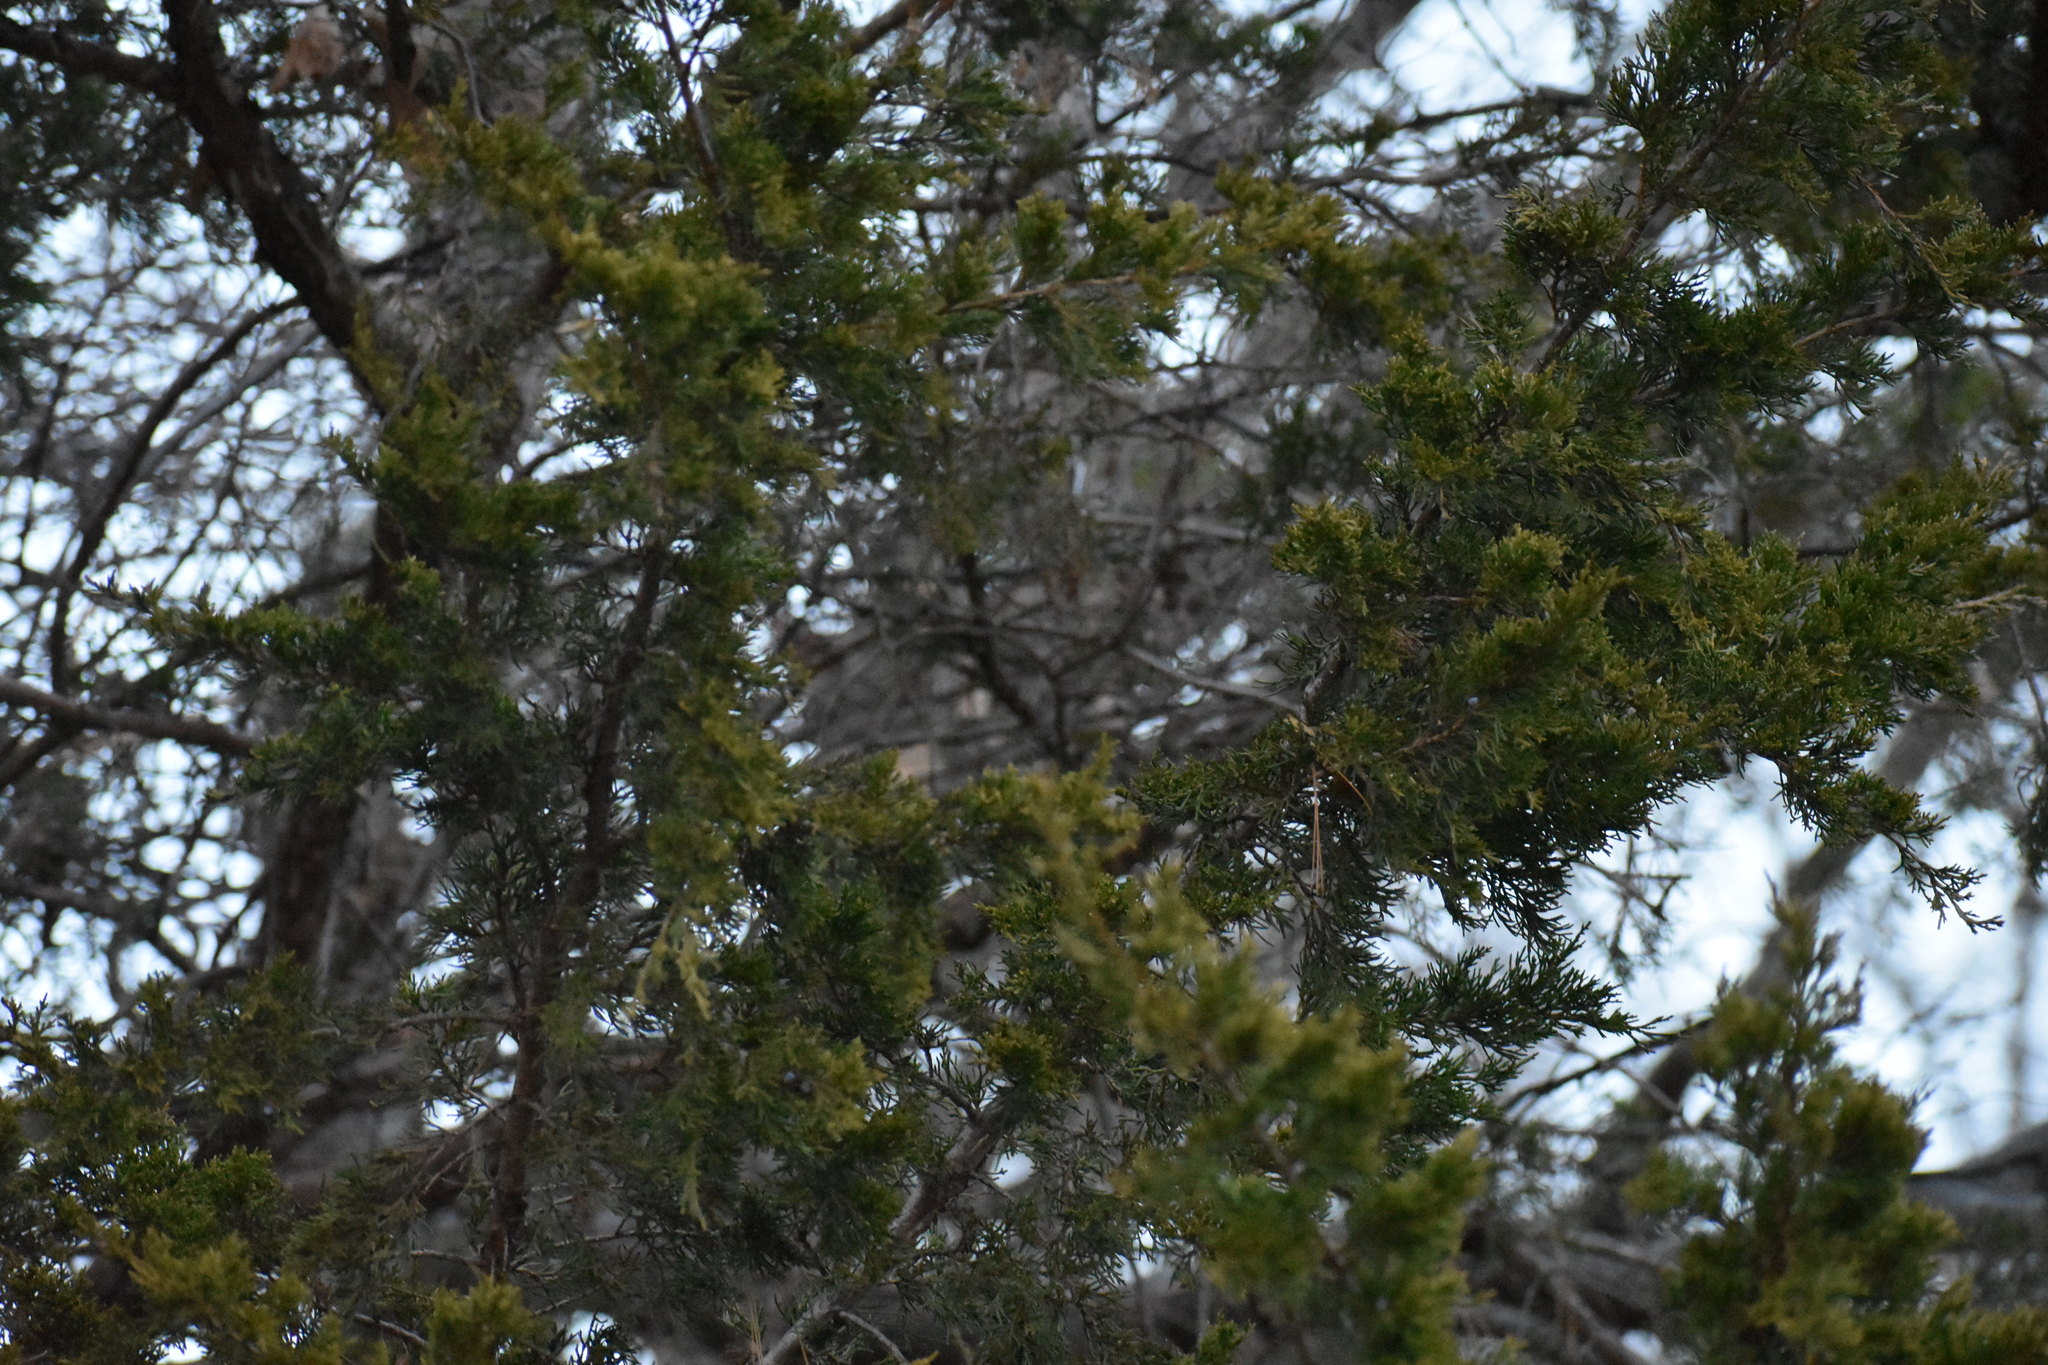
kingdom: Plantae
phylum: Tracheophyta
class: Pinopsida
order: Pinales
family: Cupressaceae
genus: Juniperus
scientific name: Juniperus virginiana
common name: Red juniper
